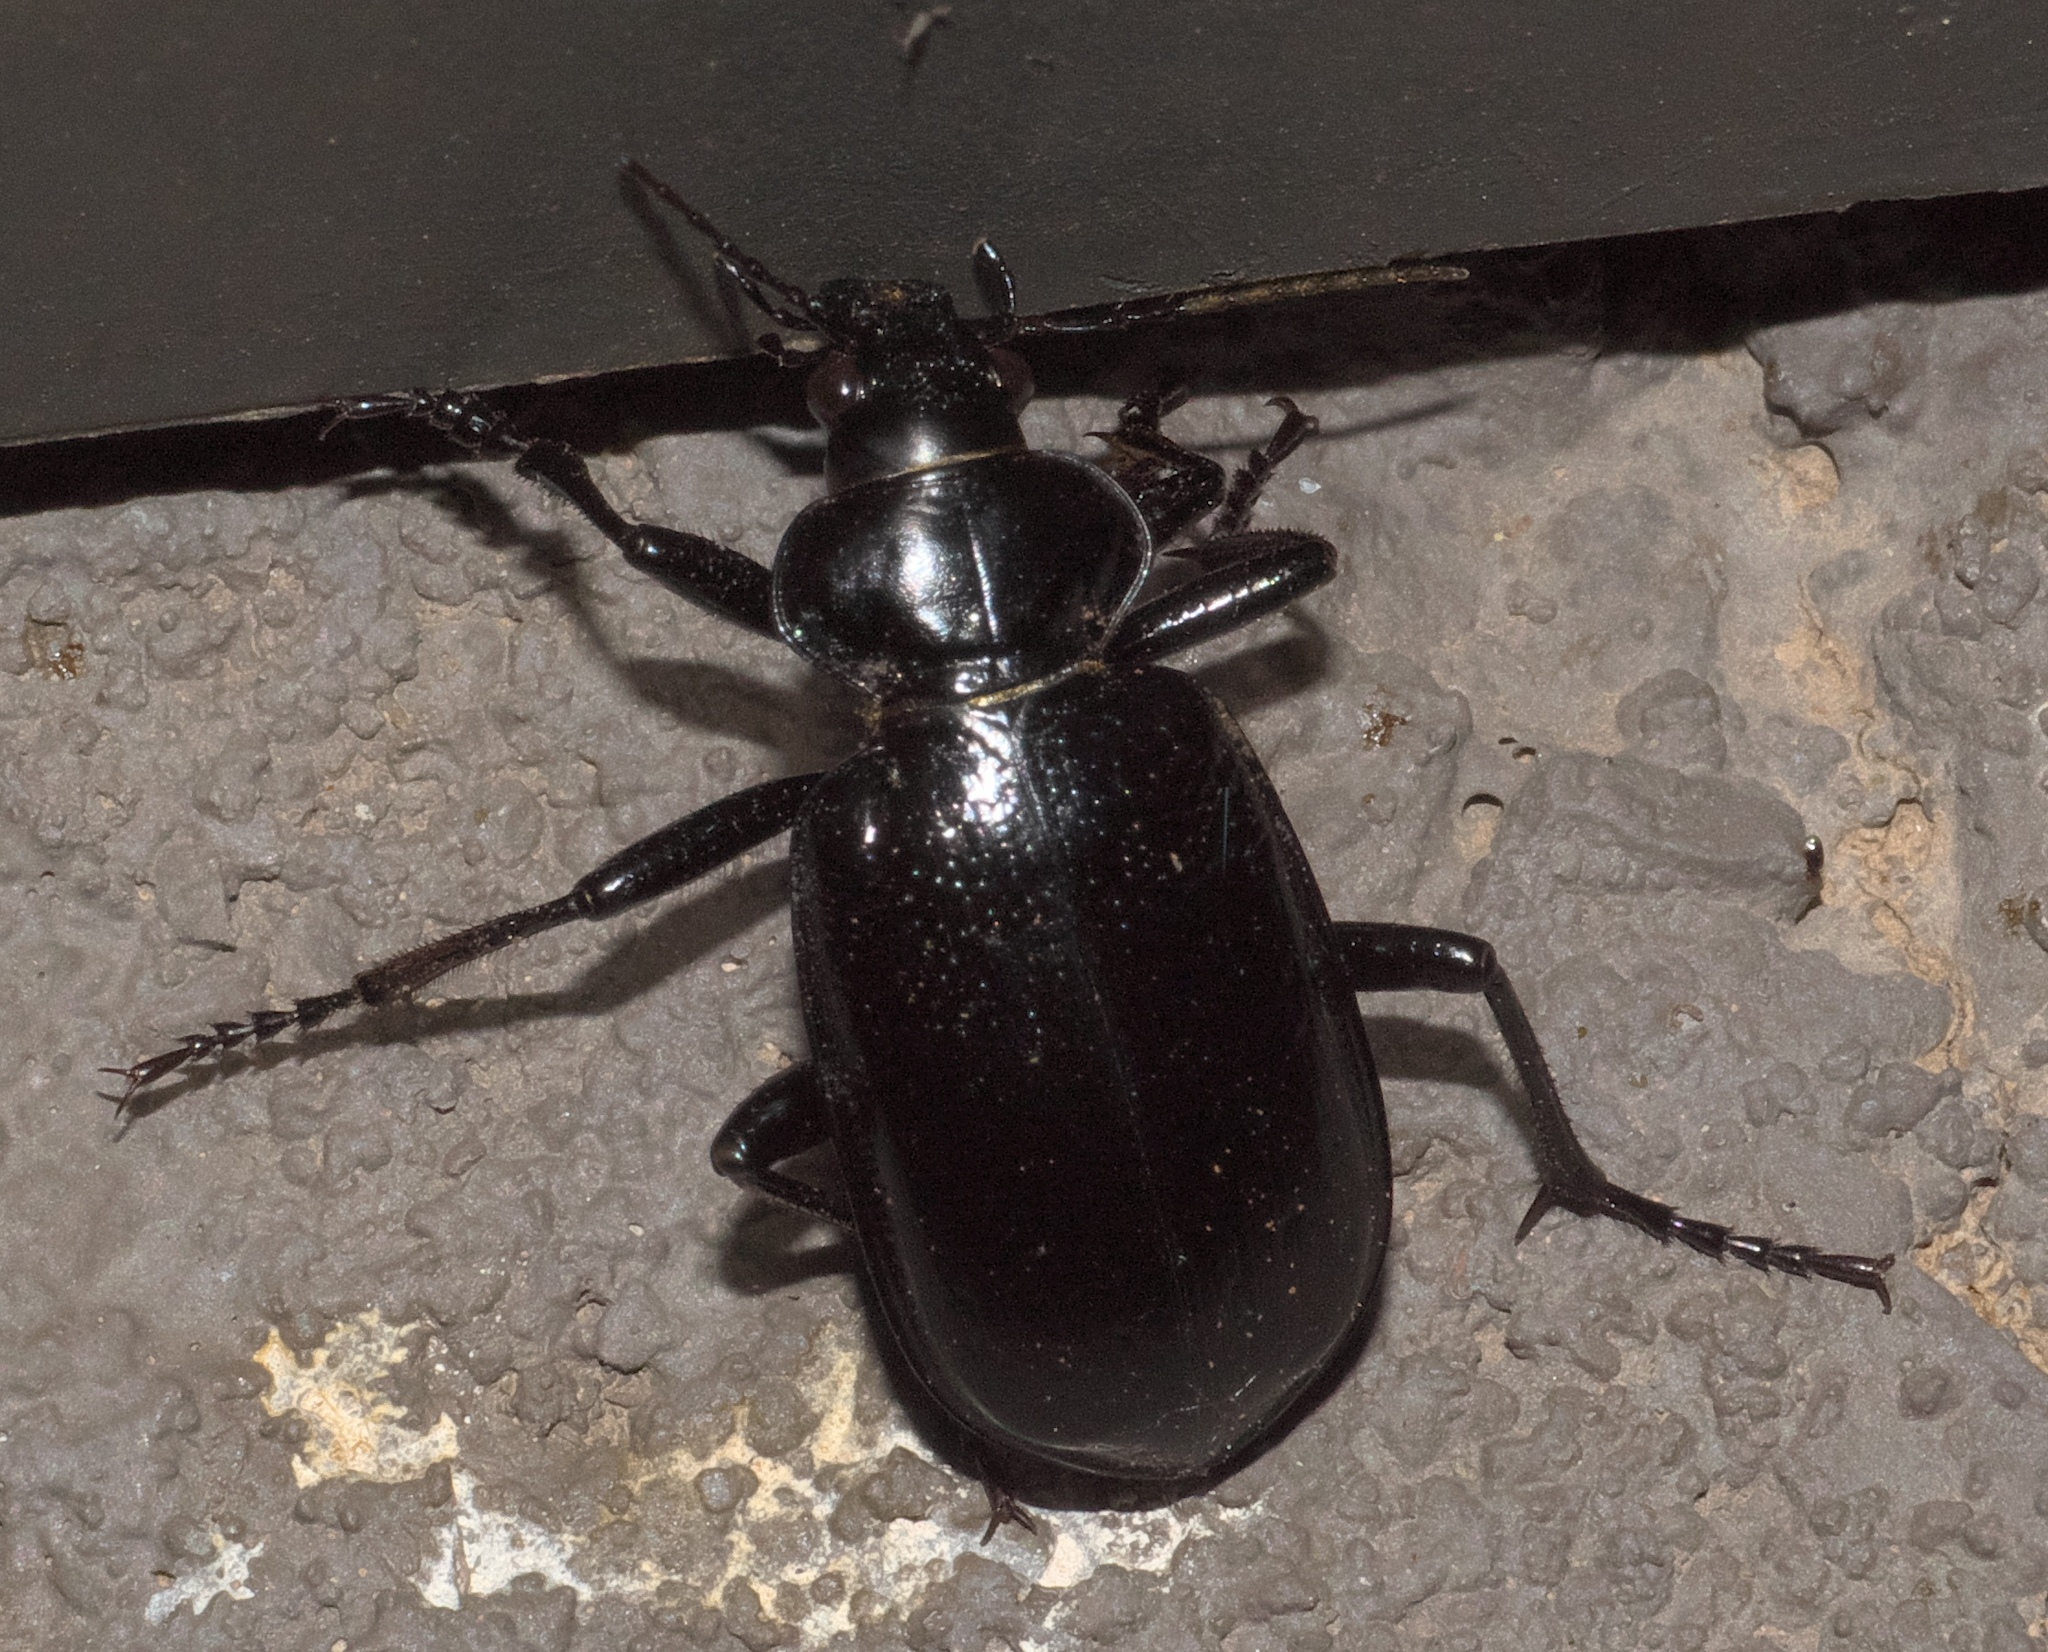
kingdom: Animalia
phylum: Arthropoda
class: Insecta
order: Coleoptera
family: Carabidae
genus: Calosoma
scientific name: Calosoma marginale
